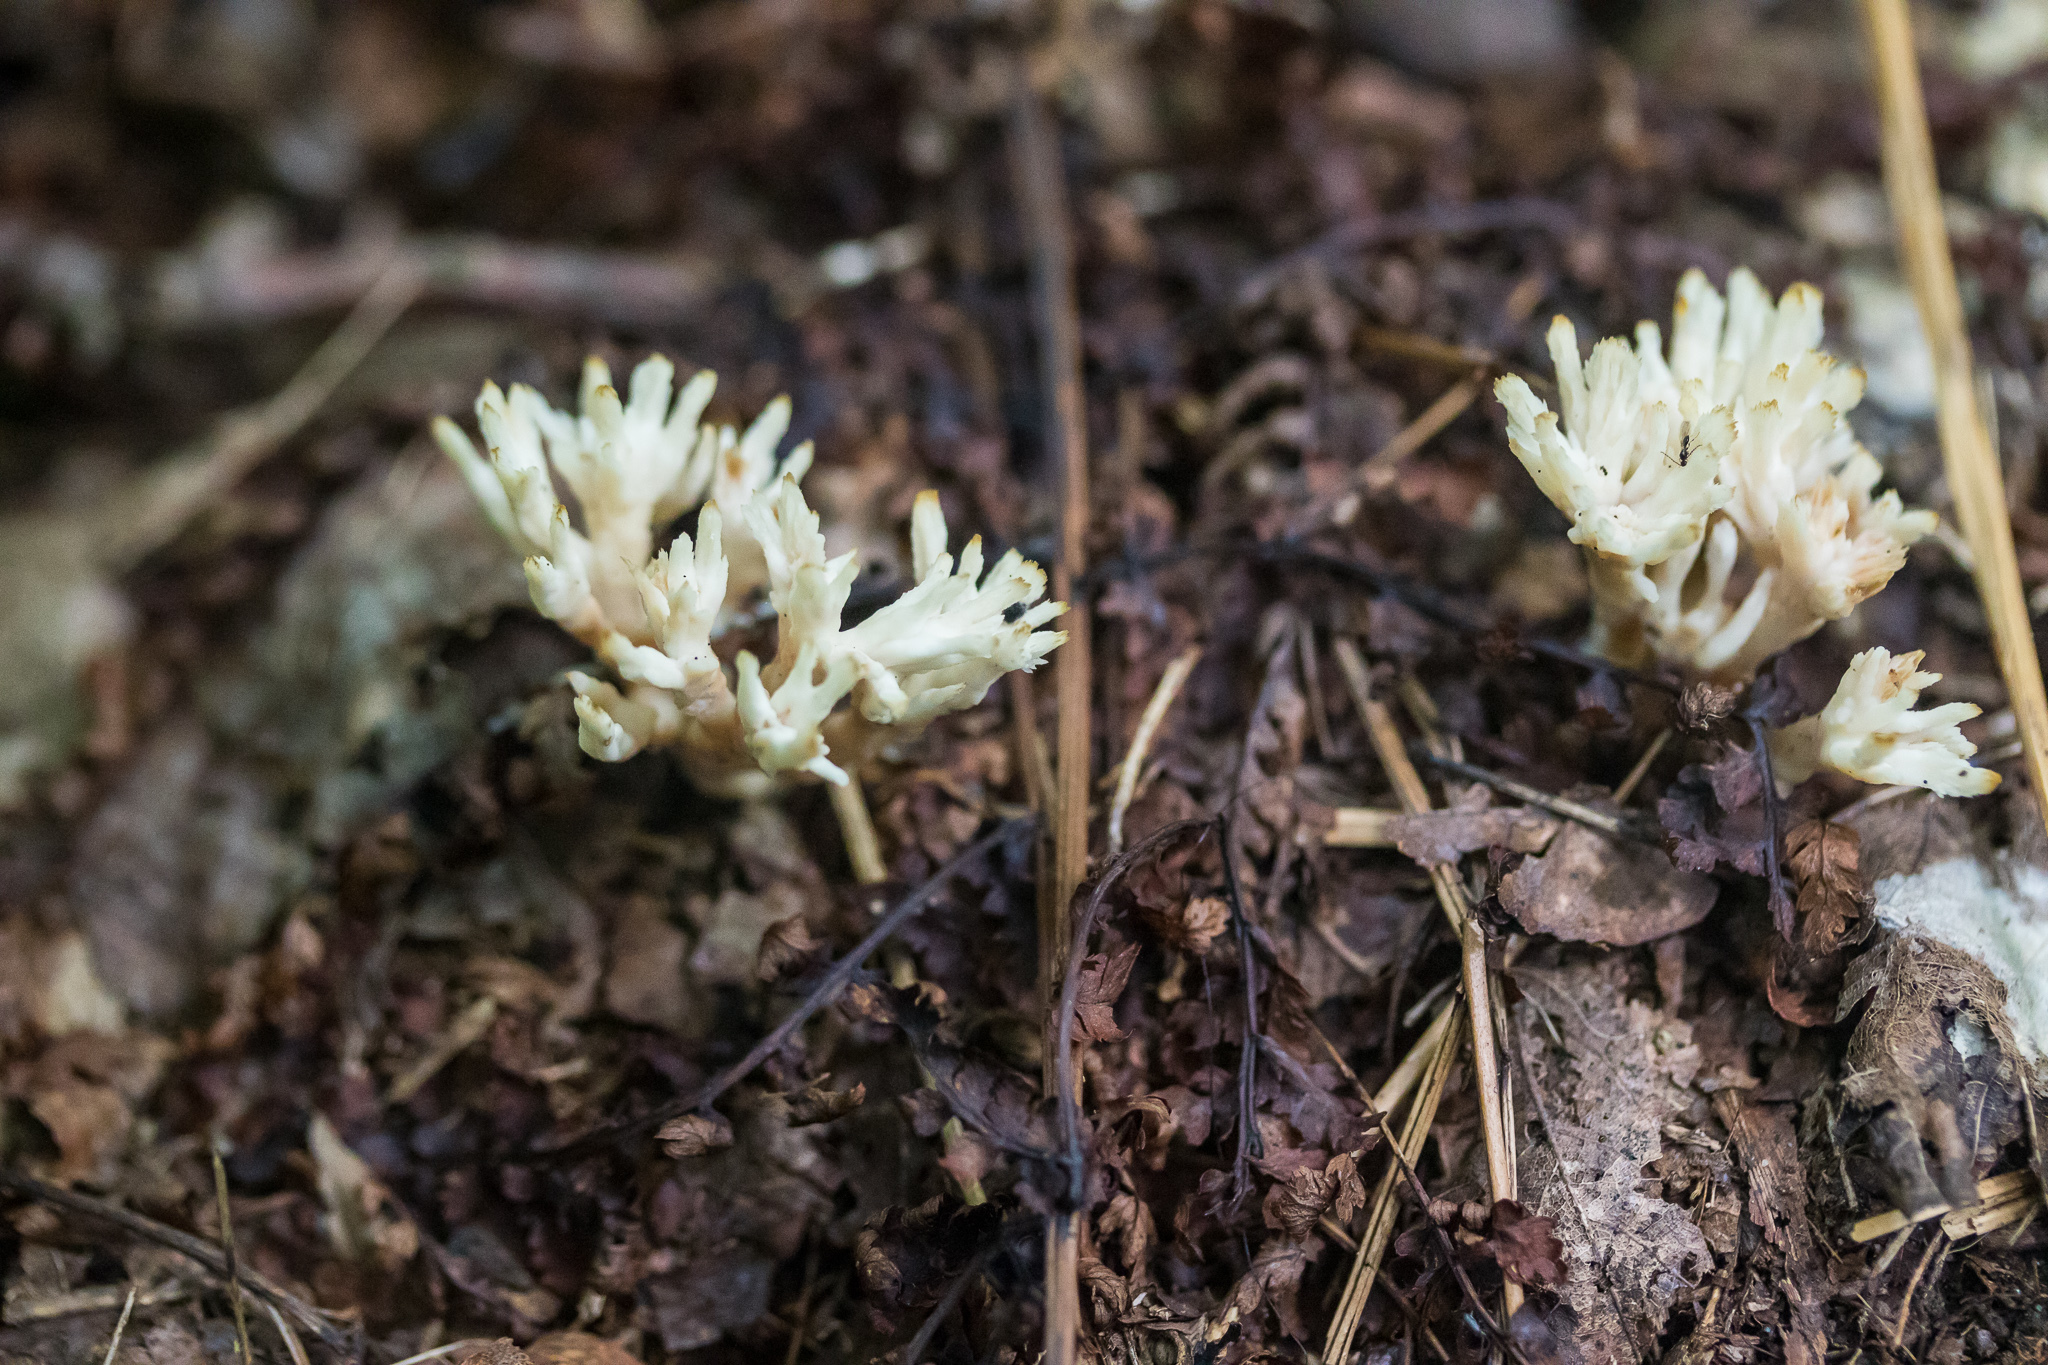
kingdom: Fungi
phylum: Basidiomycota
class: Agaricomycetes
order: Cantharellales
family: Hydnaceae
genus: Clavulina
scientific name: Clavulina coralloides
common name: Crested coral
